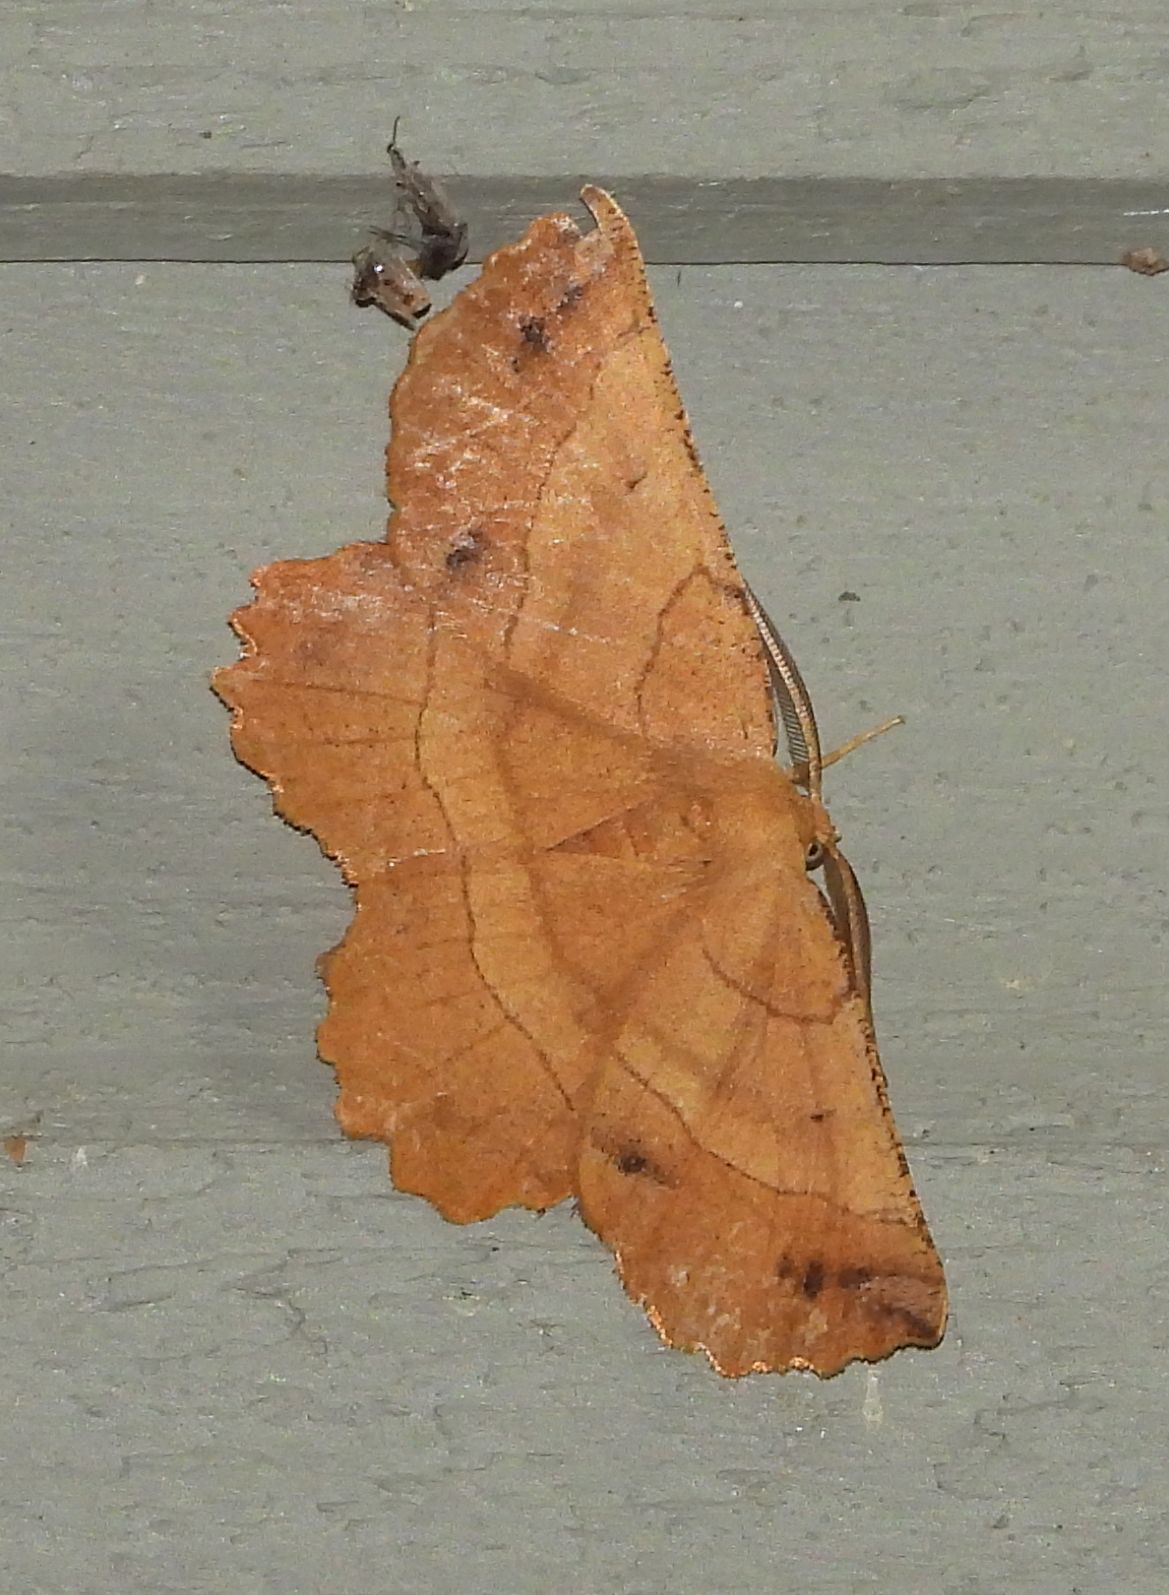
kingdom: Animalia
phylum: Arthropoda
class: Insecta
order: Lepidoptera
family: Geometridae
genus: Euchlaena
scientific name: Euchlaena johnsonaria
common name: Johnson's euchlaena
